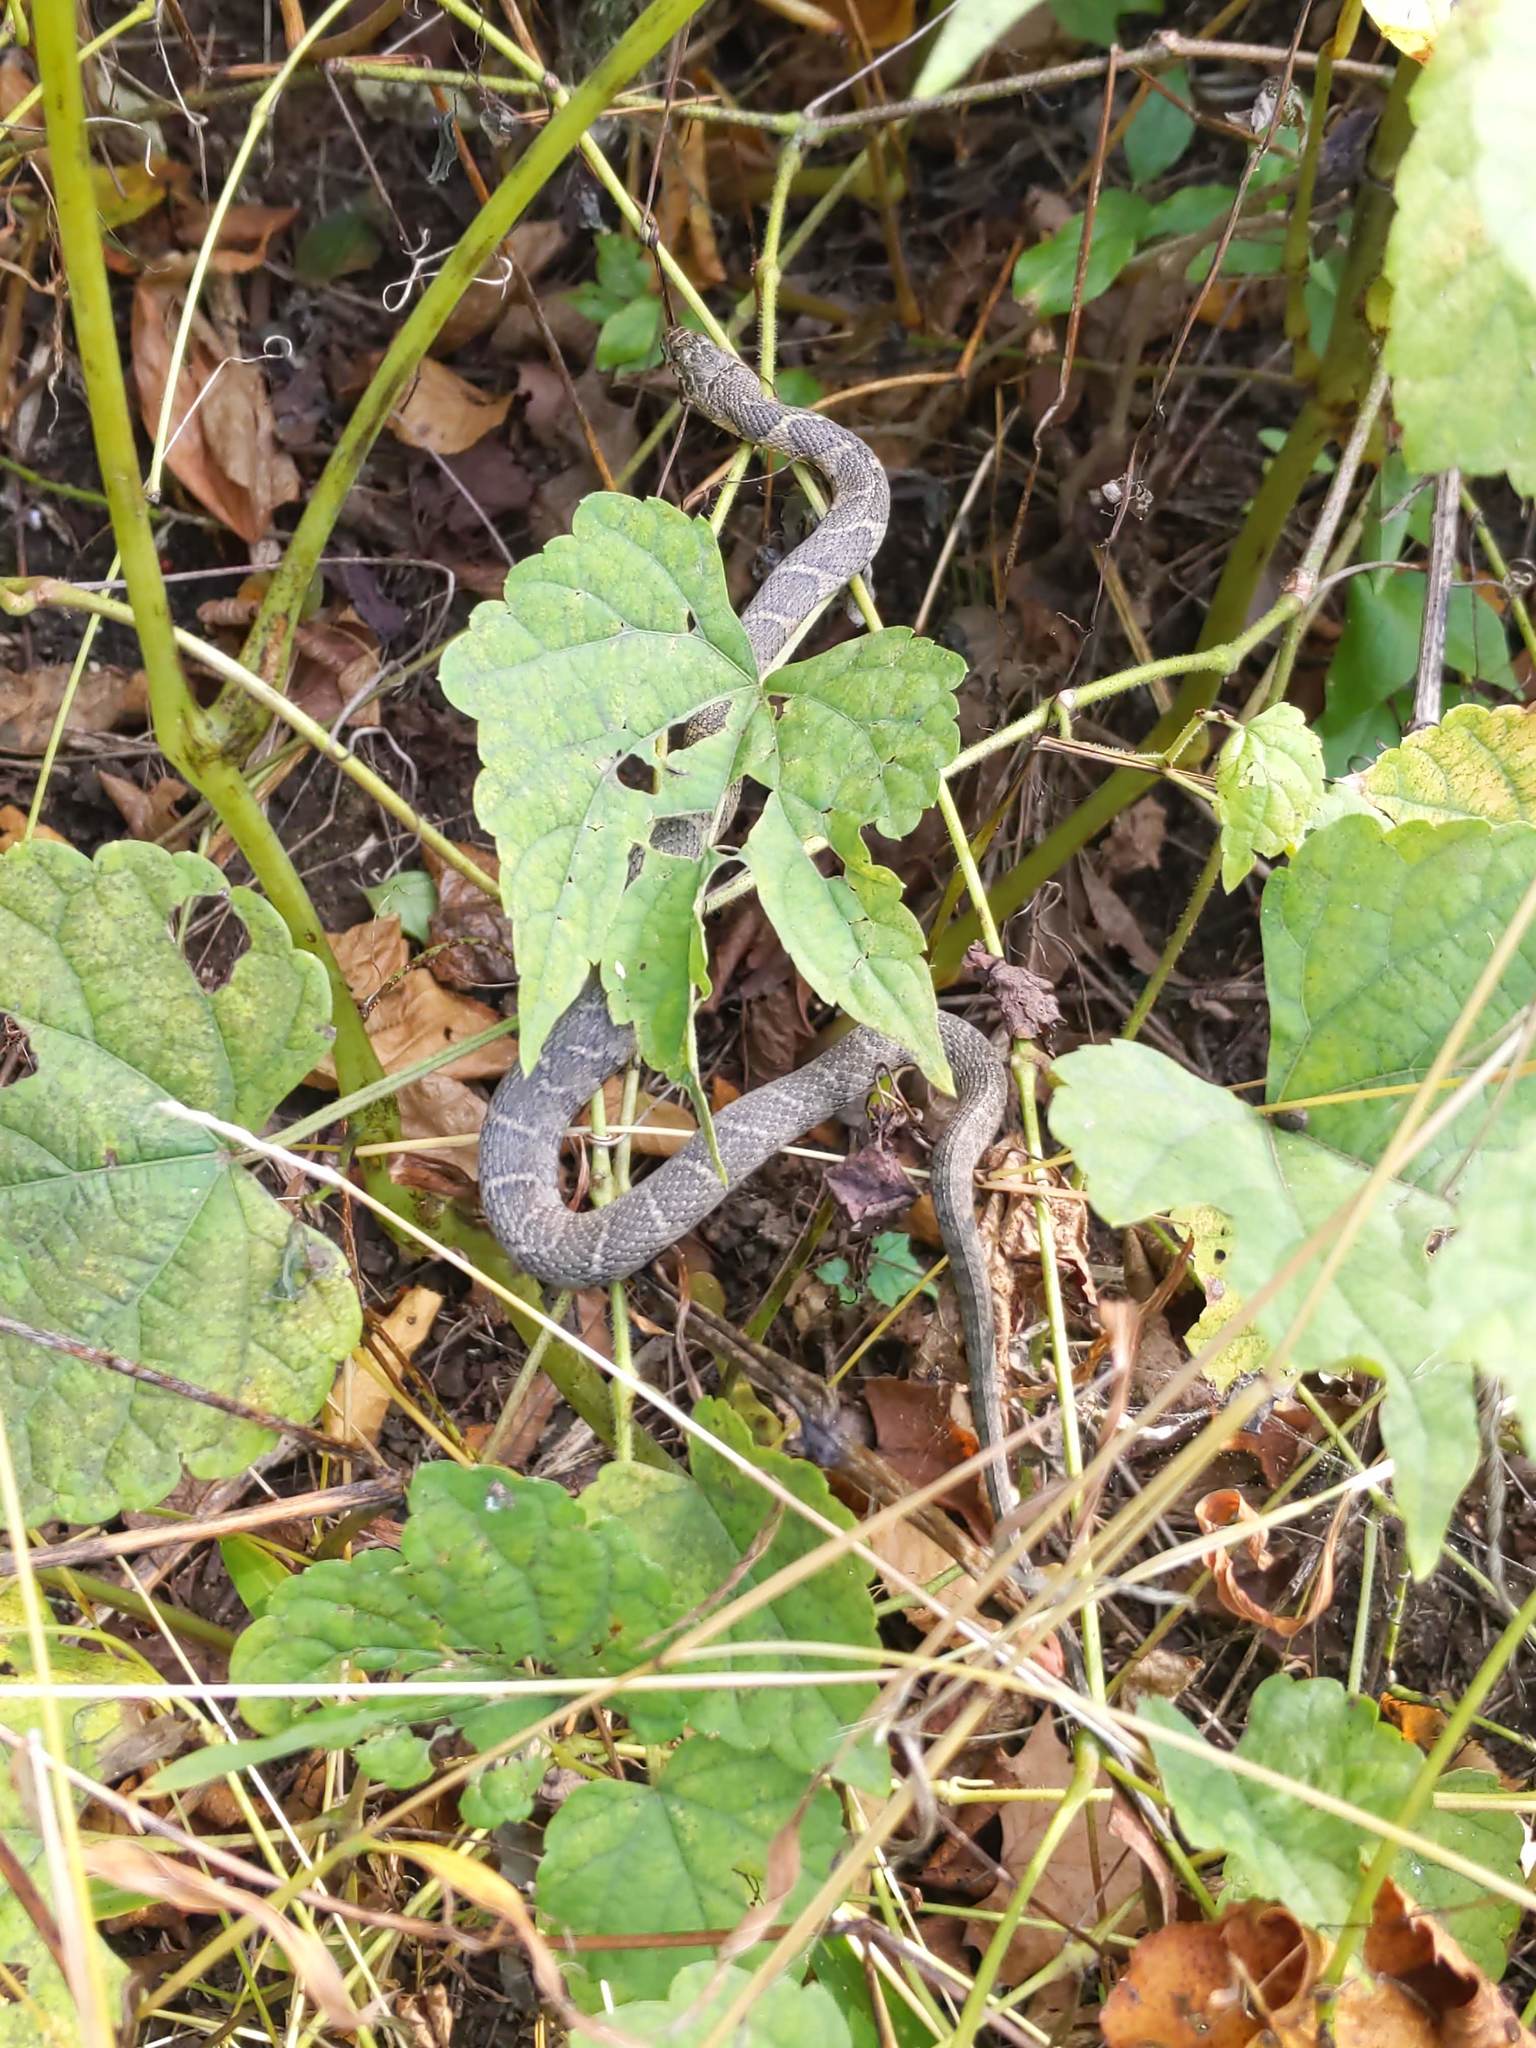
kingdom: Animalia
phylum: Chordata
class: Squamata
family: Colubridae
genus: Nerodia
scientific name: Nerodia sipedon
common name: Northern water snake
